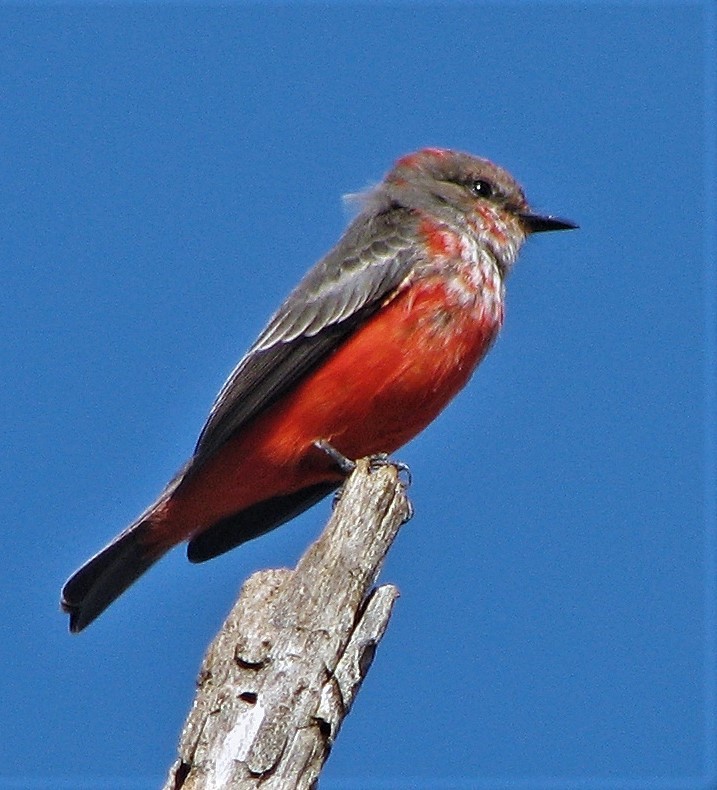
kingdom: Animalia
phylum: Chordata
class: Aves
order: Passeriformes
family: Tyrannidae
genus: Pyrocephalus
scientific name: Pyrocephalus rubinus
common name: Vermilion flycatcher
